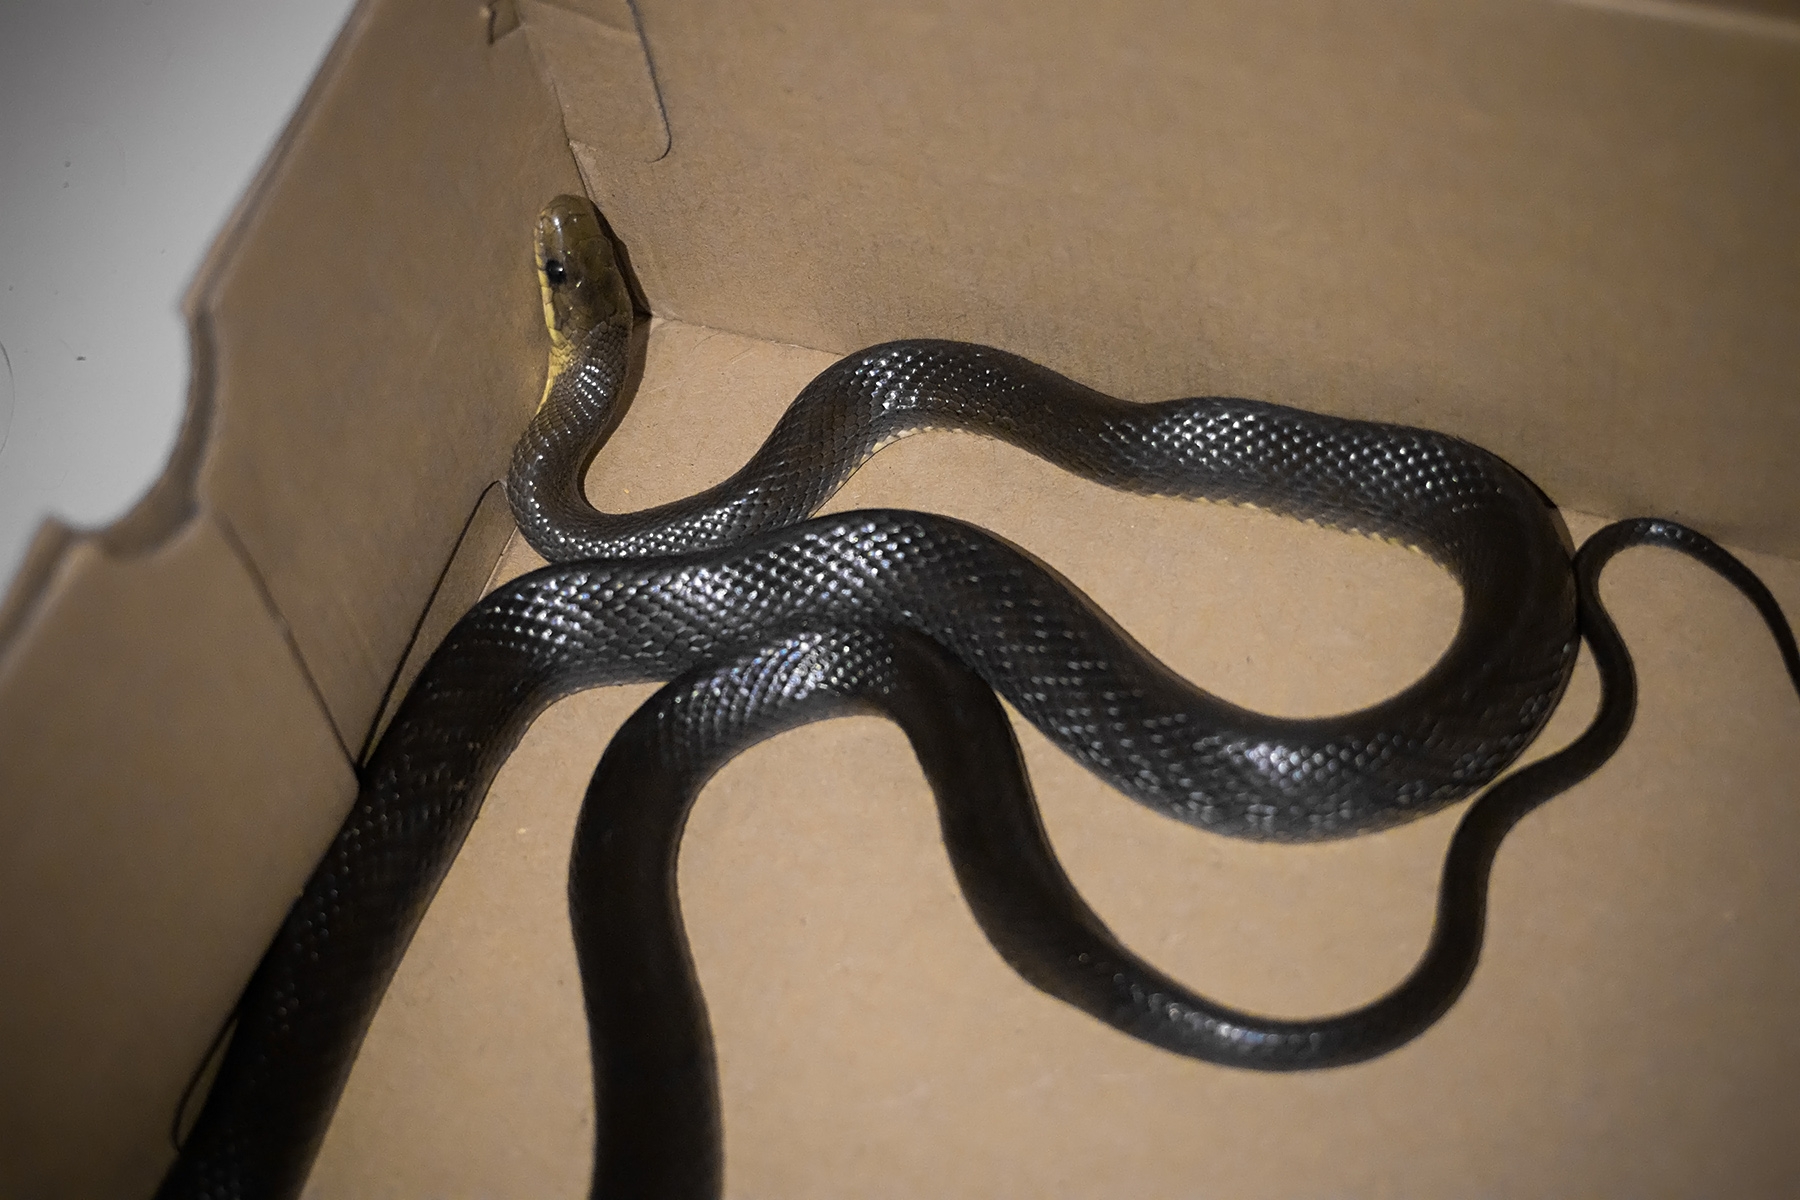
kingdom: Animalia
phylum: Chordata
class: Squamata
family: Colubridae
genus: Zamenis
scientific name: Zamenis longissimus
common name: Aesculapean snake
